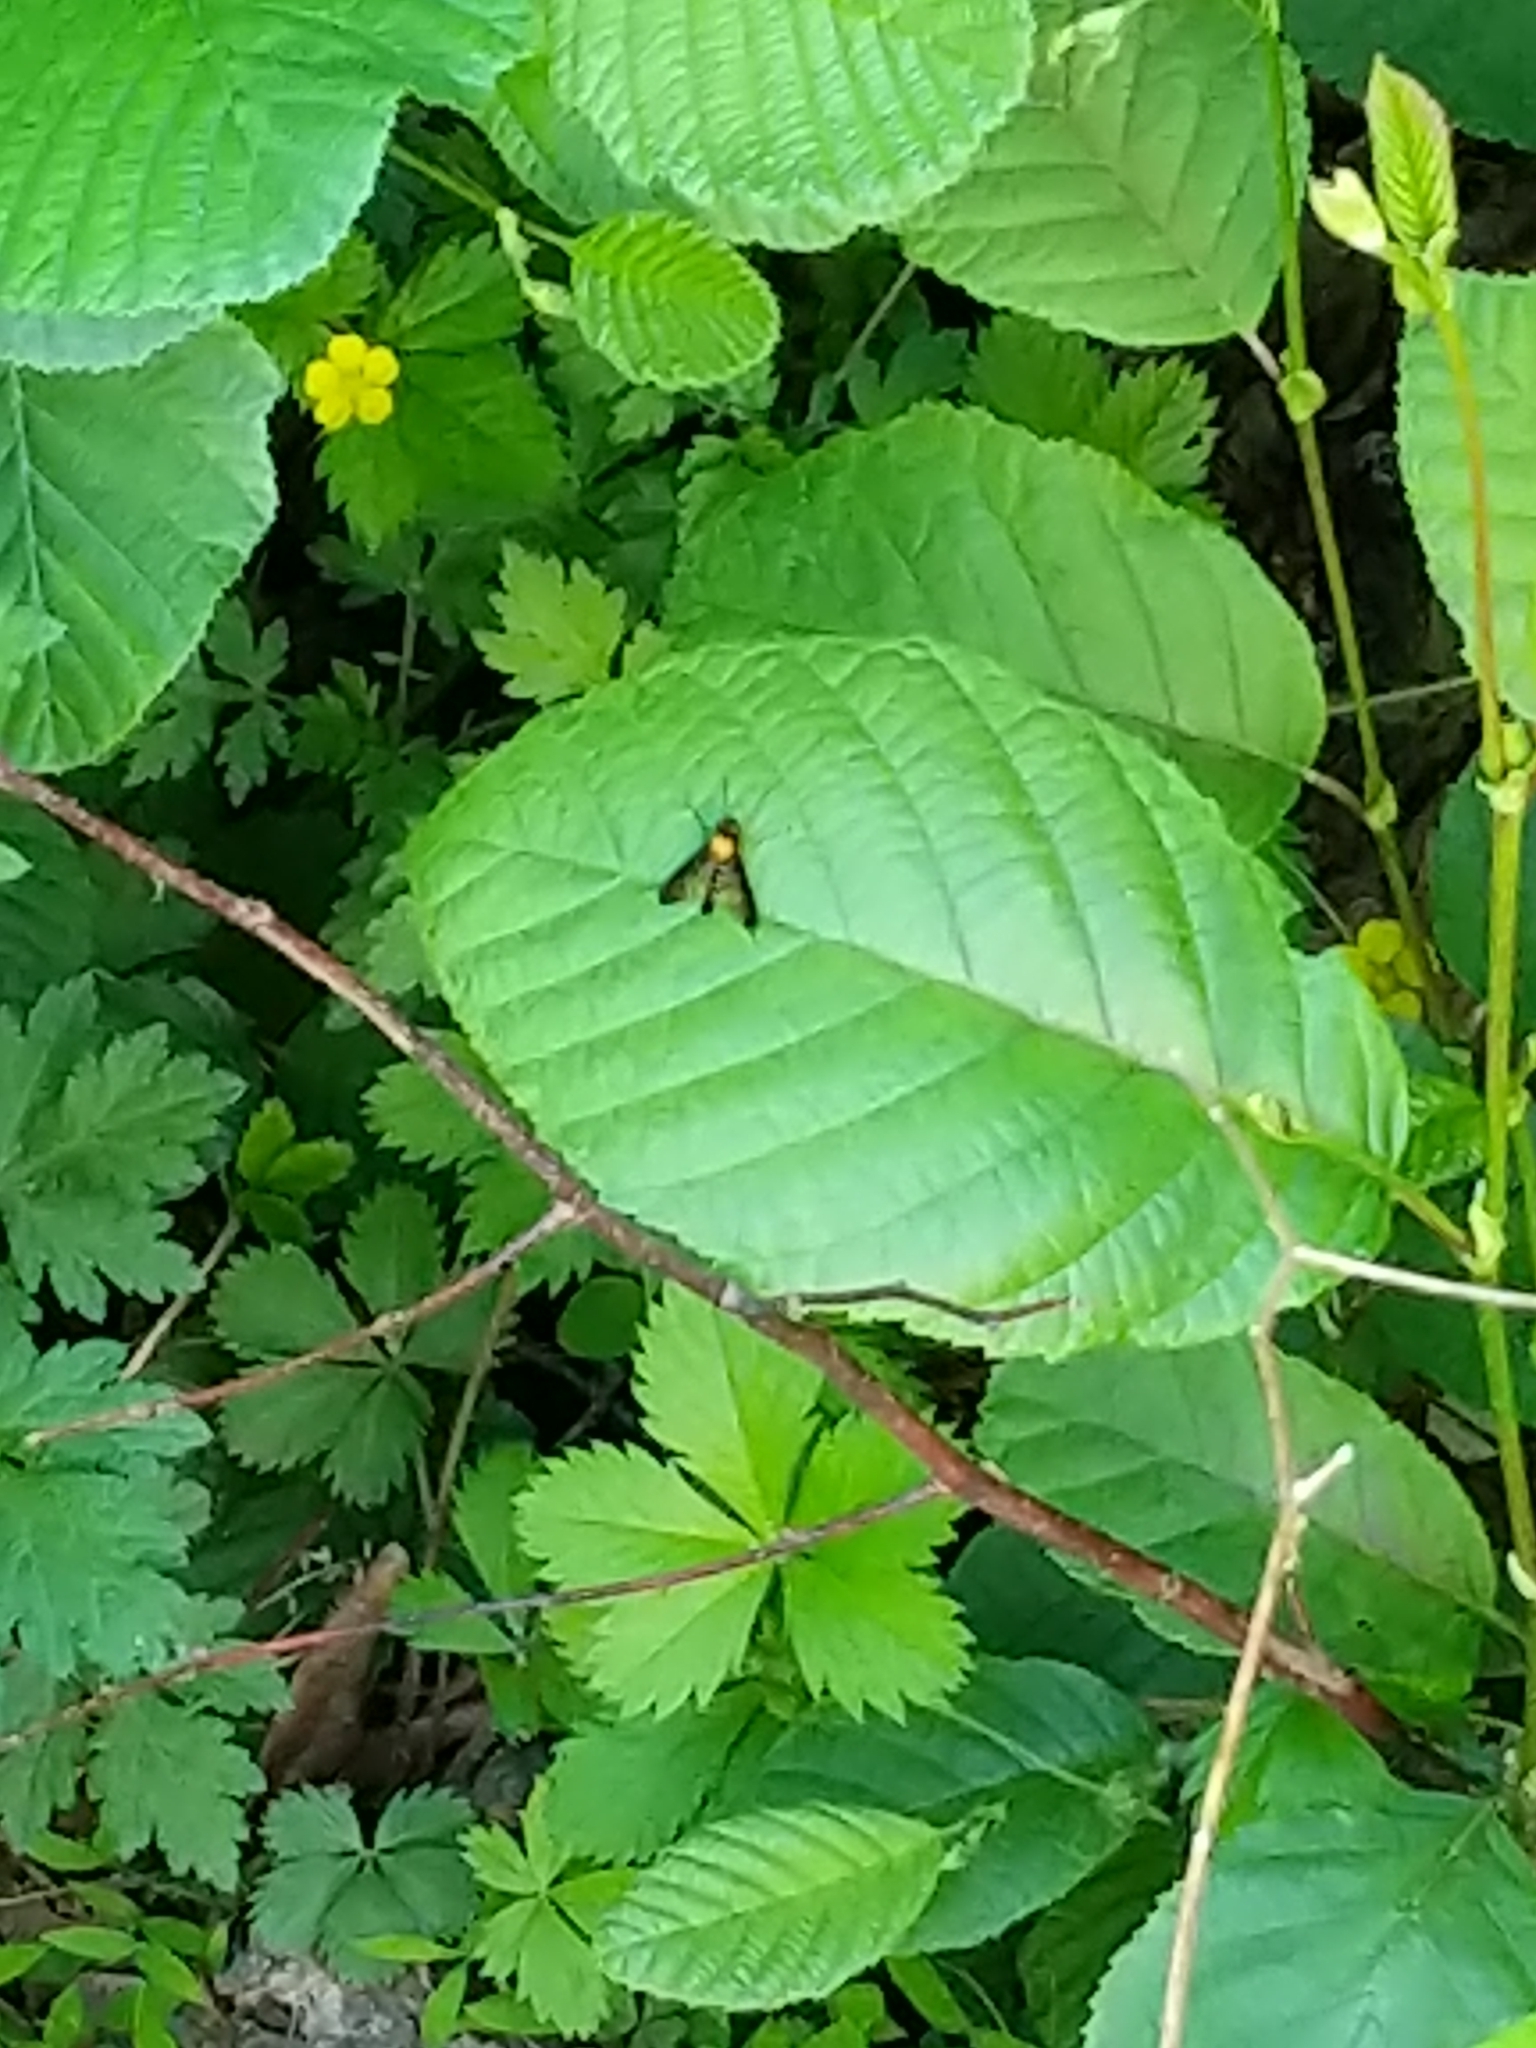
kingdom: Animalia
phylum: Arthropoda
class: Insecta
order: Diptera
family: Rhagionidae
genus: Chrysopilus
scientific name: Chrysopilus thoracicus
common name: Golden-backed snipe fly
